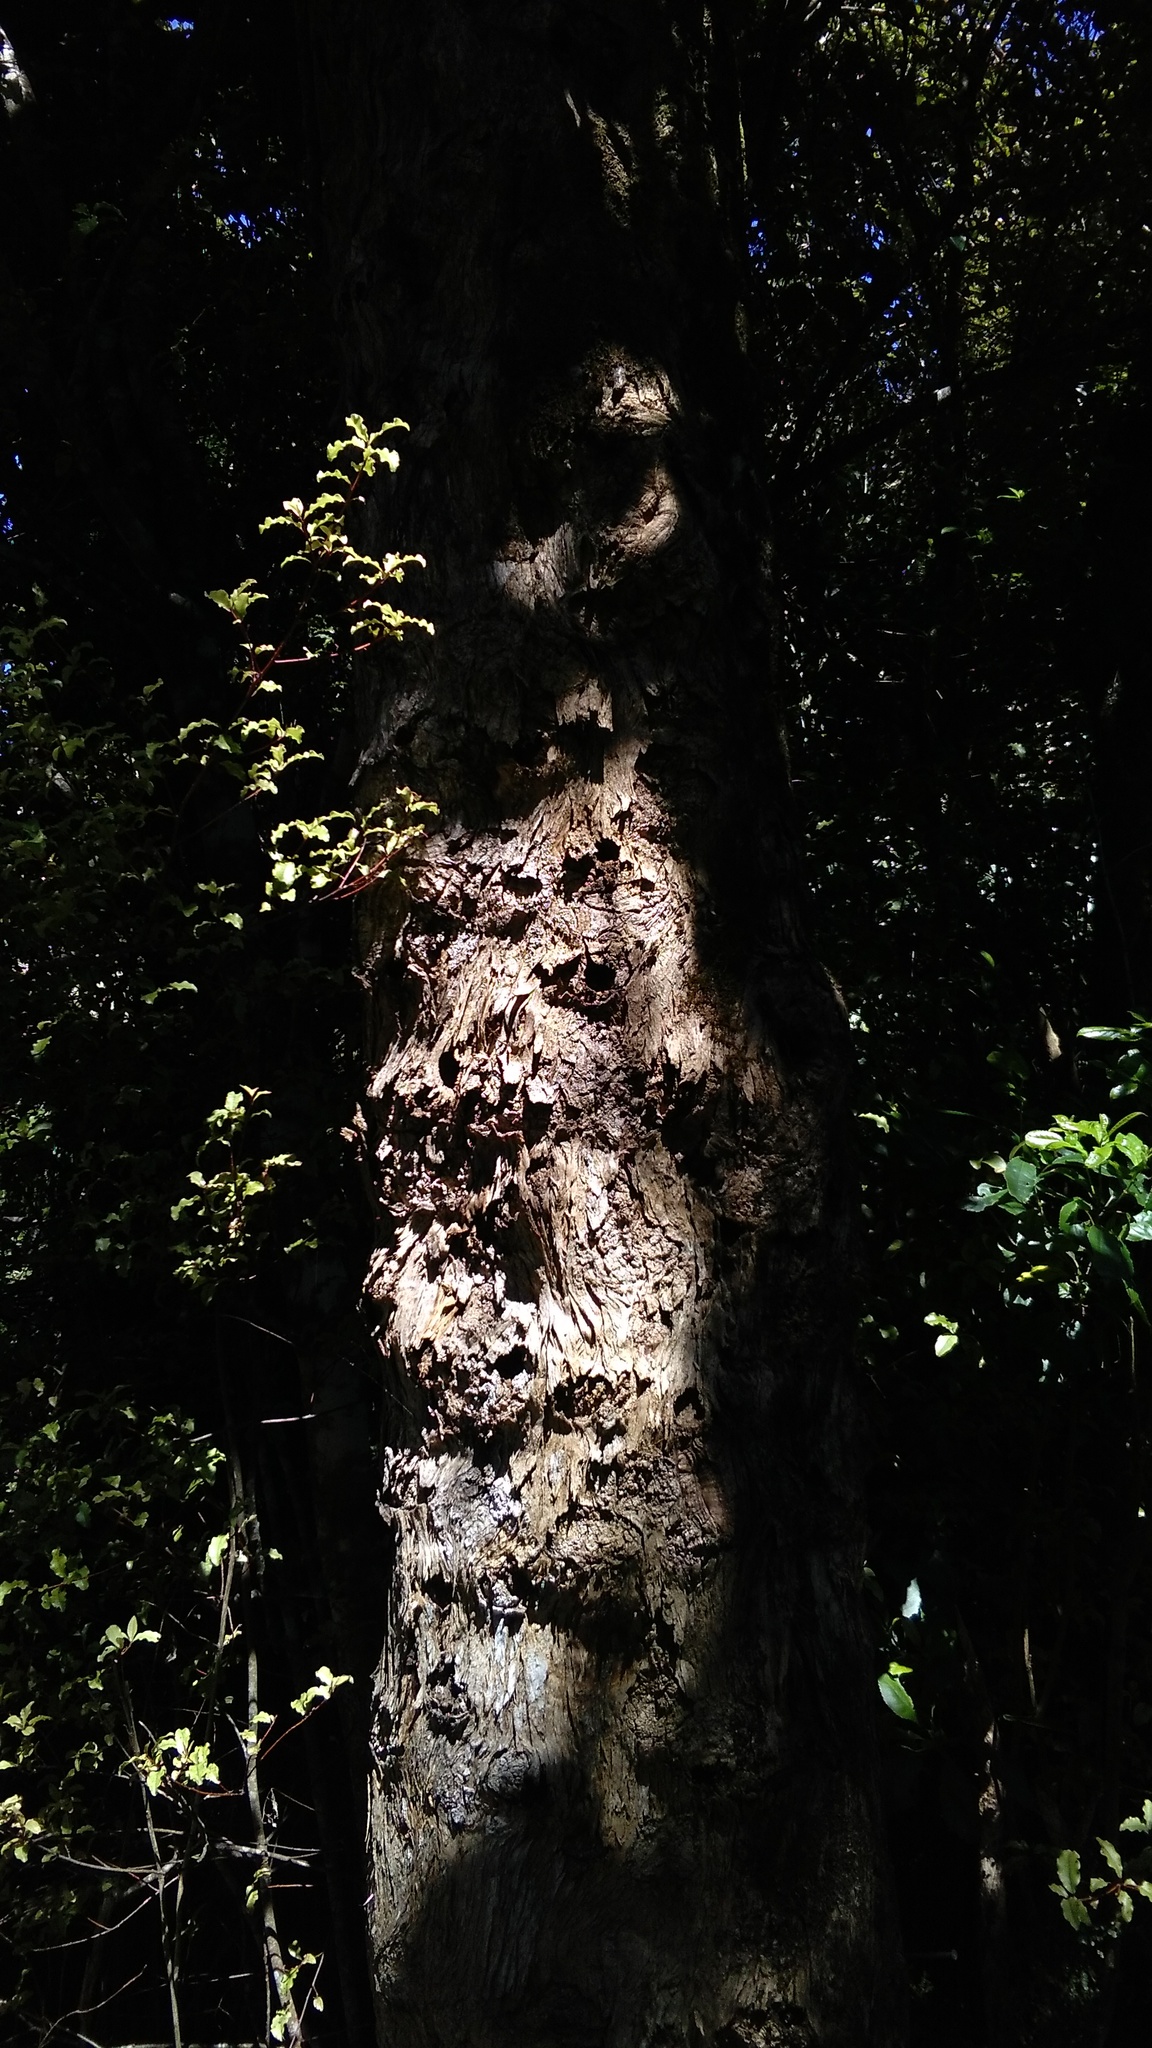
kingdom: Animalia
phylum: Arthropoda
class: Insecta
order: Lepidoptera
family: Hepialidae
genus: Aenetus
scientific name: Aenetus virescens
